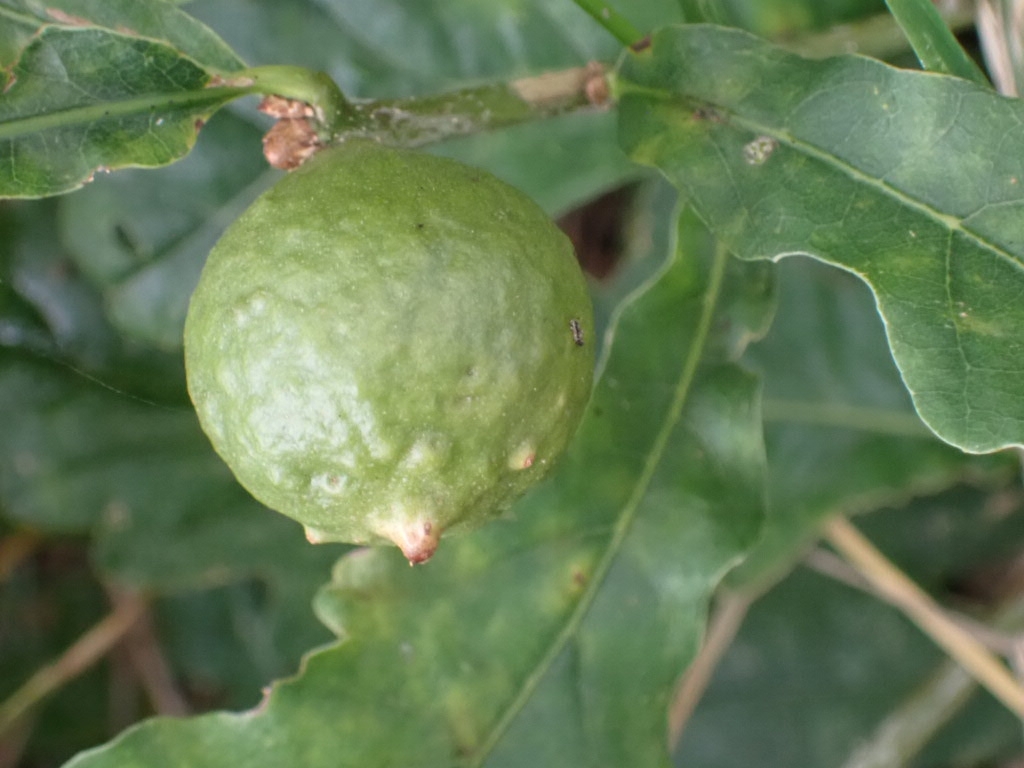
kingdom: Animalia
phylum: Arthropoda
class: Insecta
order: Hymenoptera
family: Cynipidae
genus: Andricus
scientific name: Andricus kollari
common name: Marble gall
